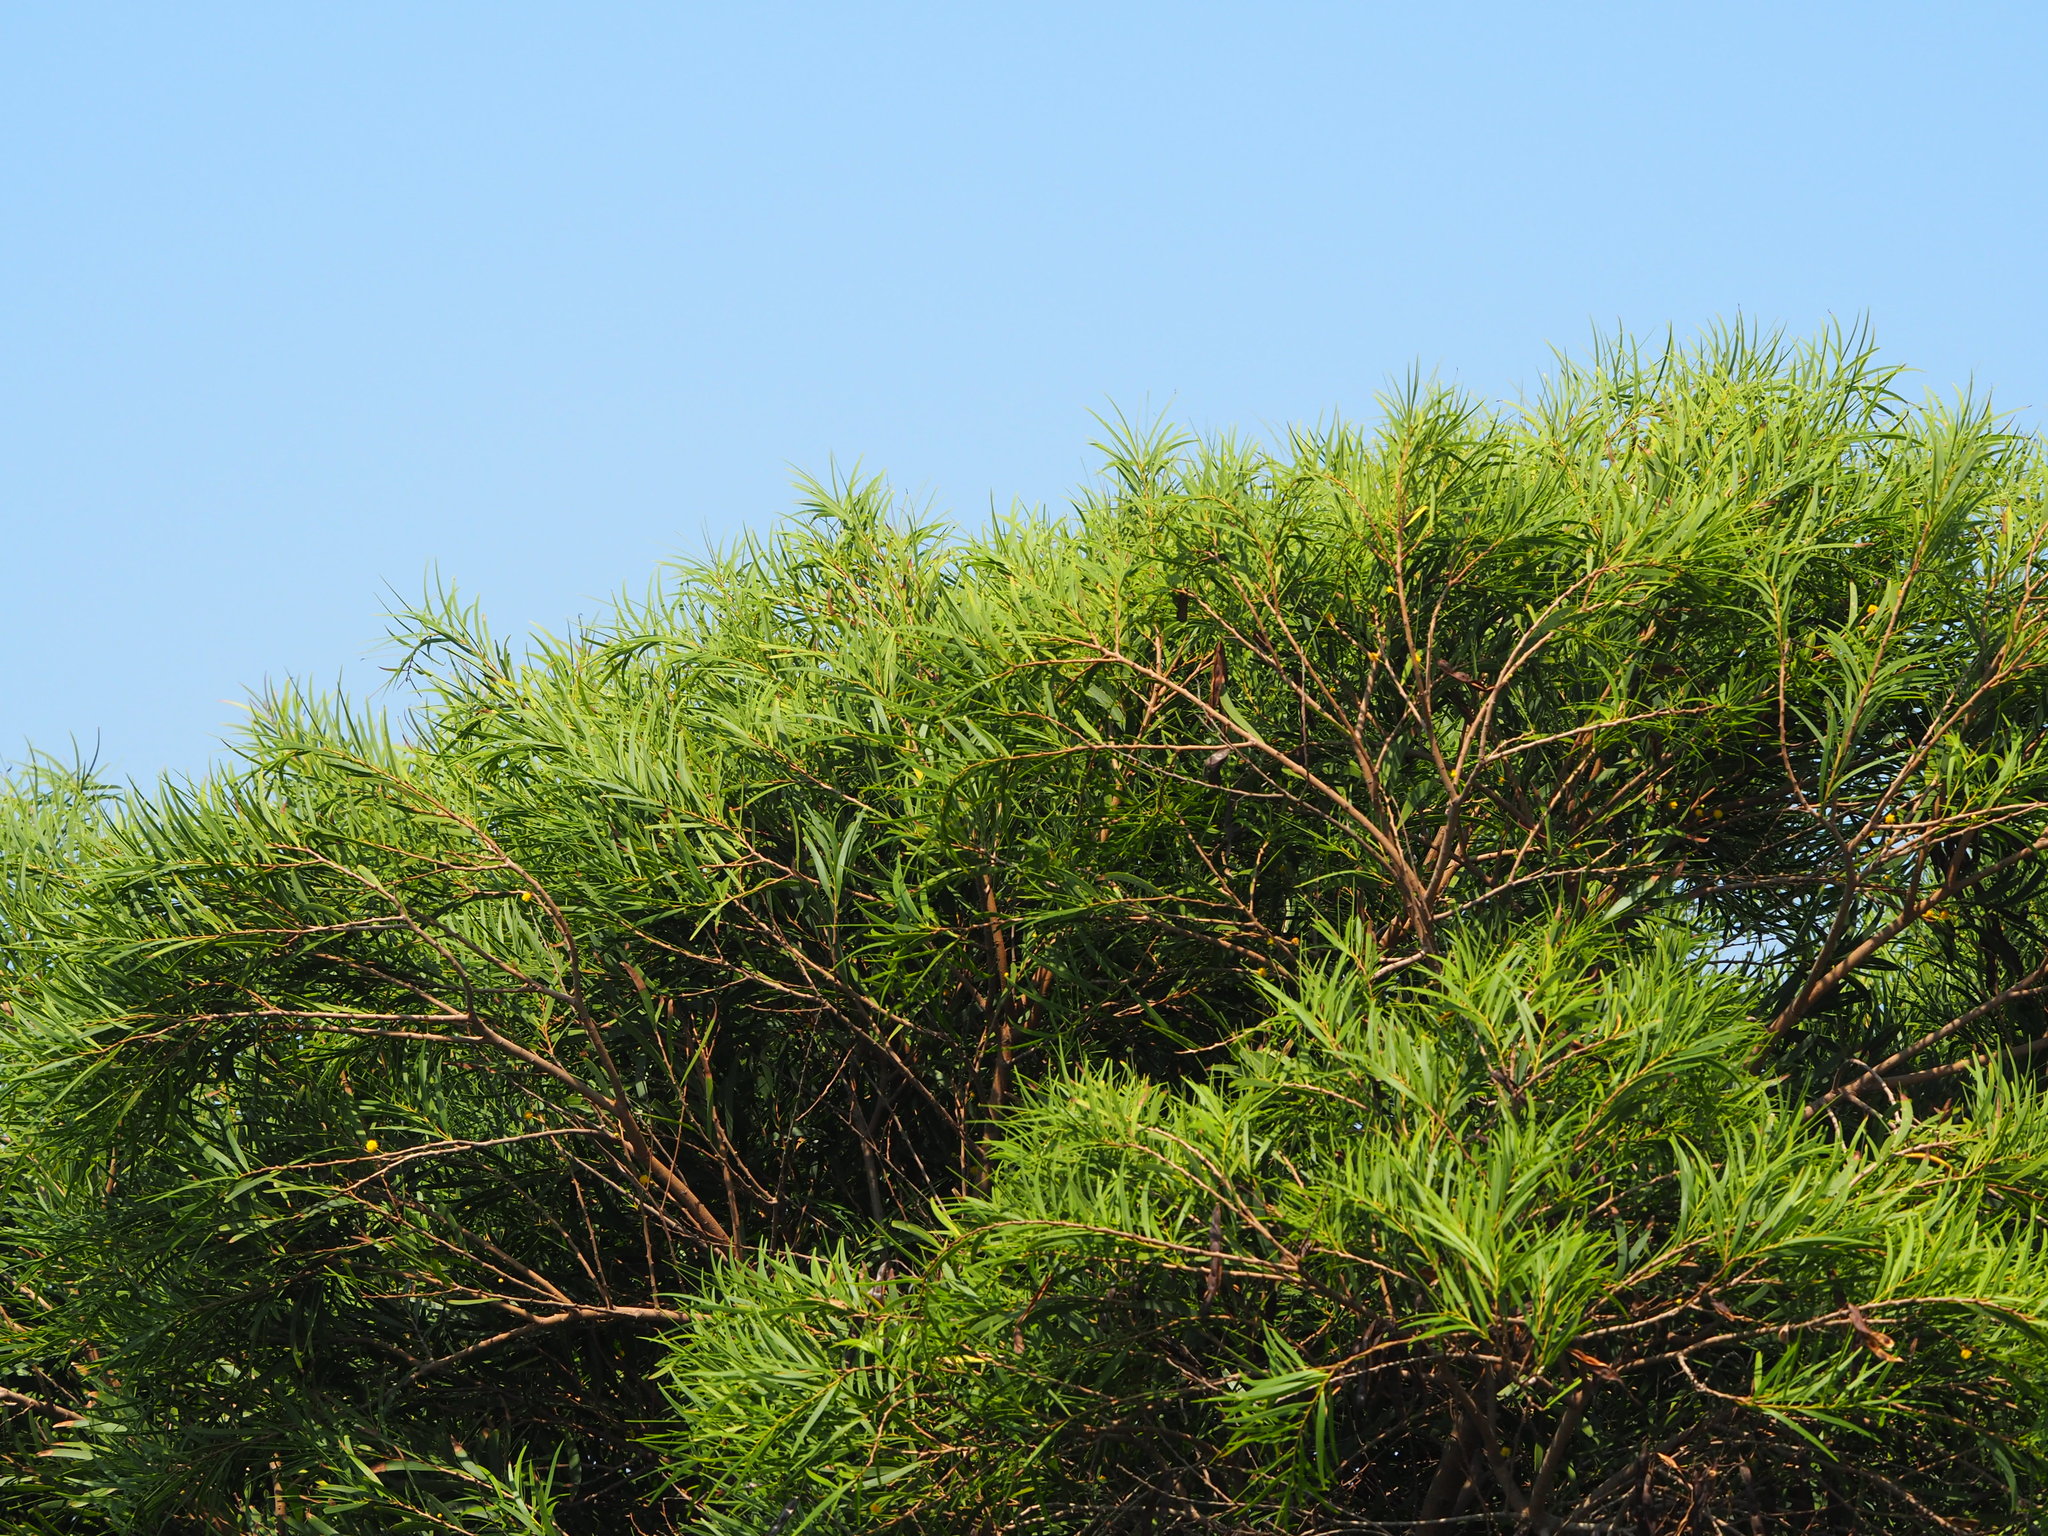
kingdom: Plantae
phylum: Tracheophyta
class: Magnoliopsida
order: Fabales
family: Fabaceae
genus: Acacia
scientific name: Acacia confusa
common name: Formosan koa
